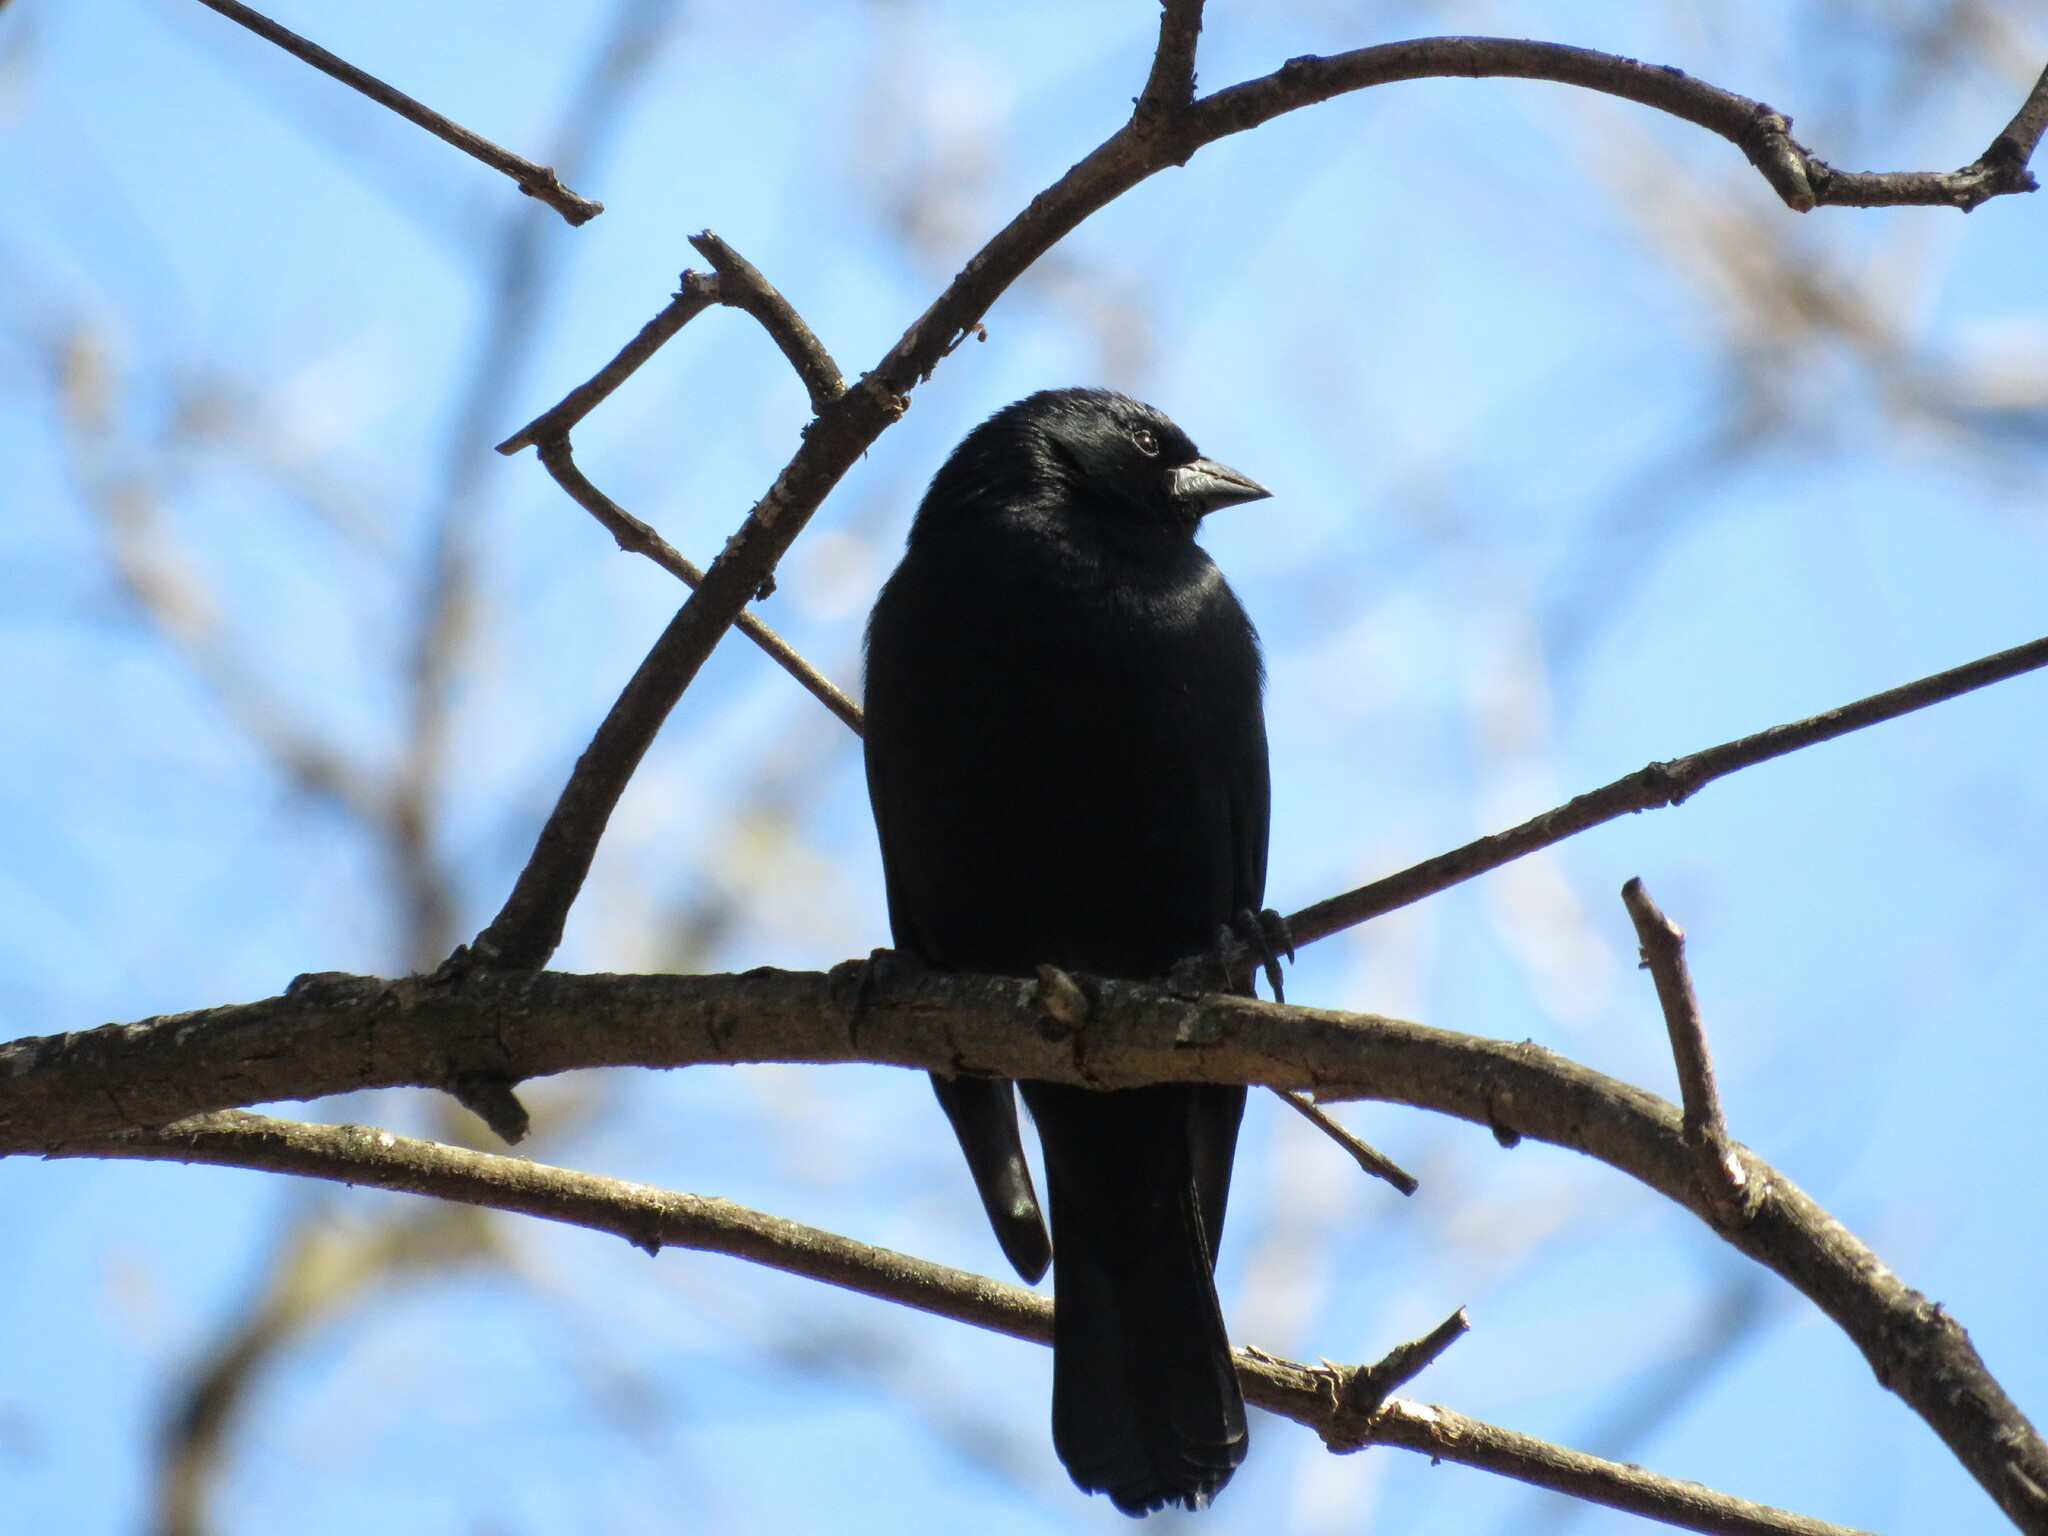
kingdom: Animalia
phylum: Chordata
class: Aves
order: Passeriformes
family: Icteridae
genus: Molothrus
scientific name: Molothrus rufoaxillaris
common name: Screaming cowbird
